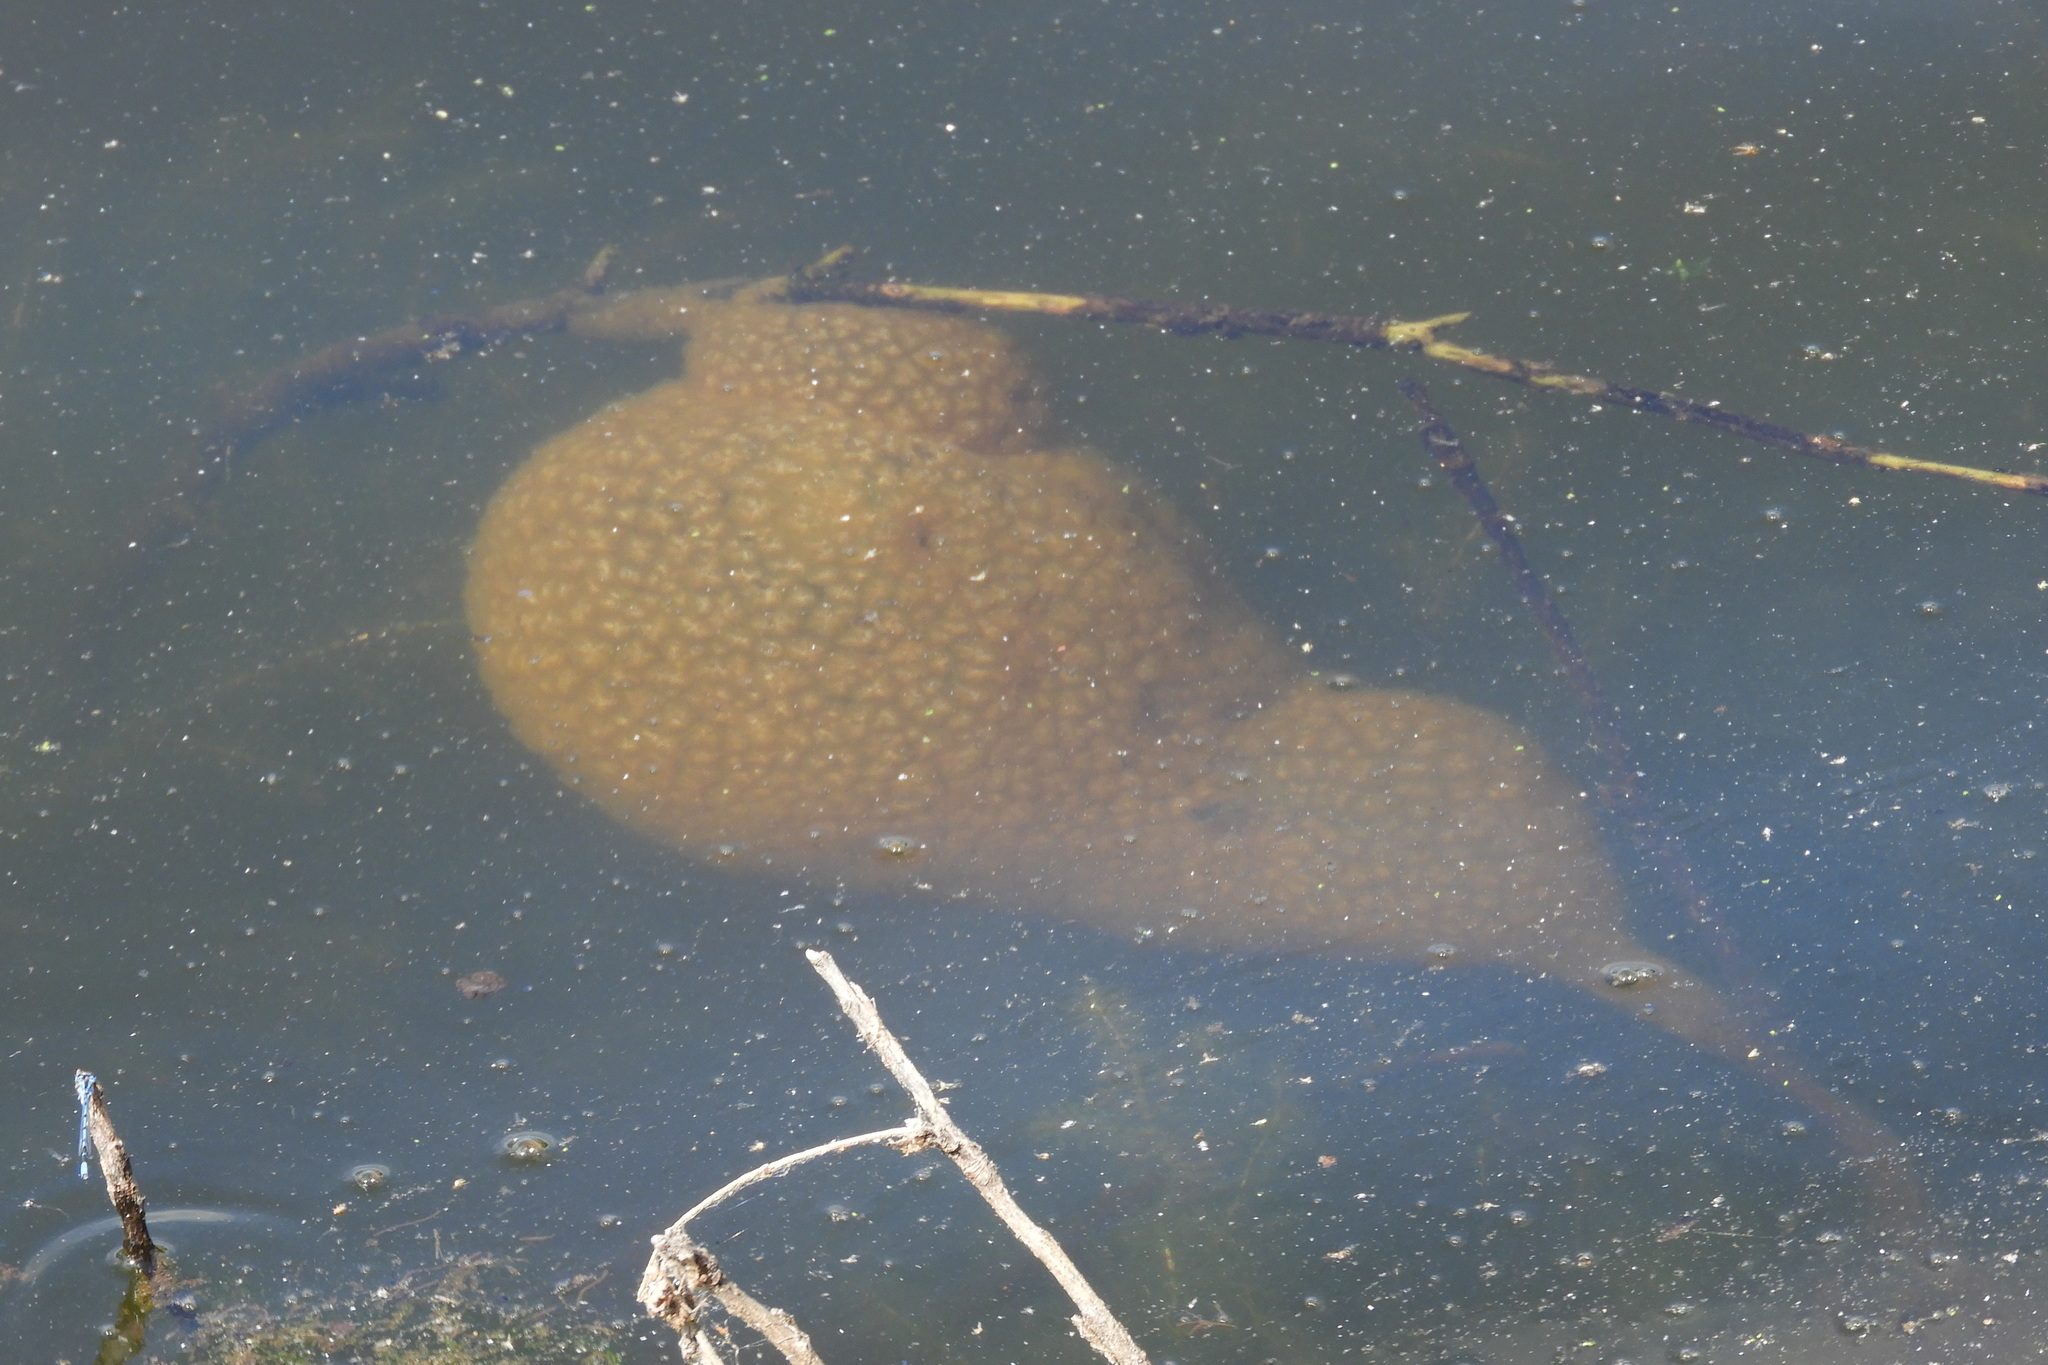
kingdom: Animalia
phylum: Bryozoa
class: Phylactolaemata
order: Plumatellida
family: Pectinatellidae
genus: Pectinatella
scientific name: Pectinatella magnifica
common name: Magnificent bryozoan
